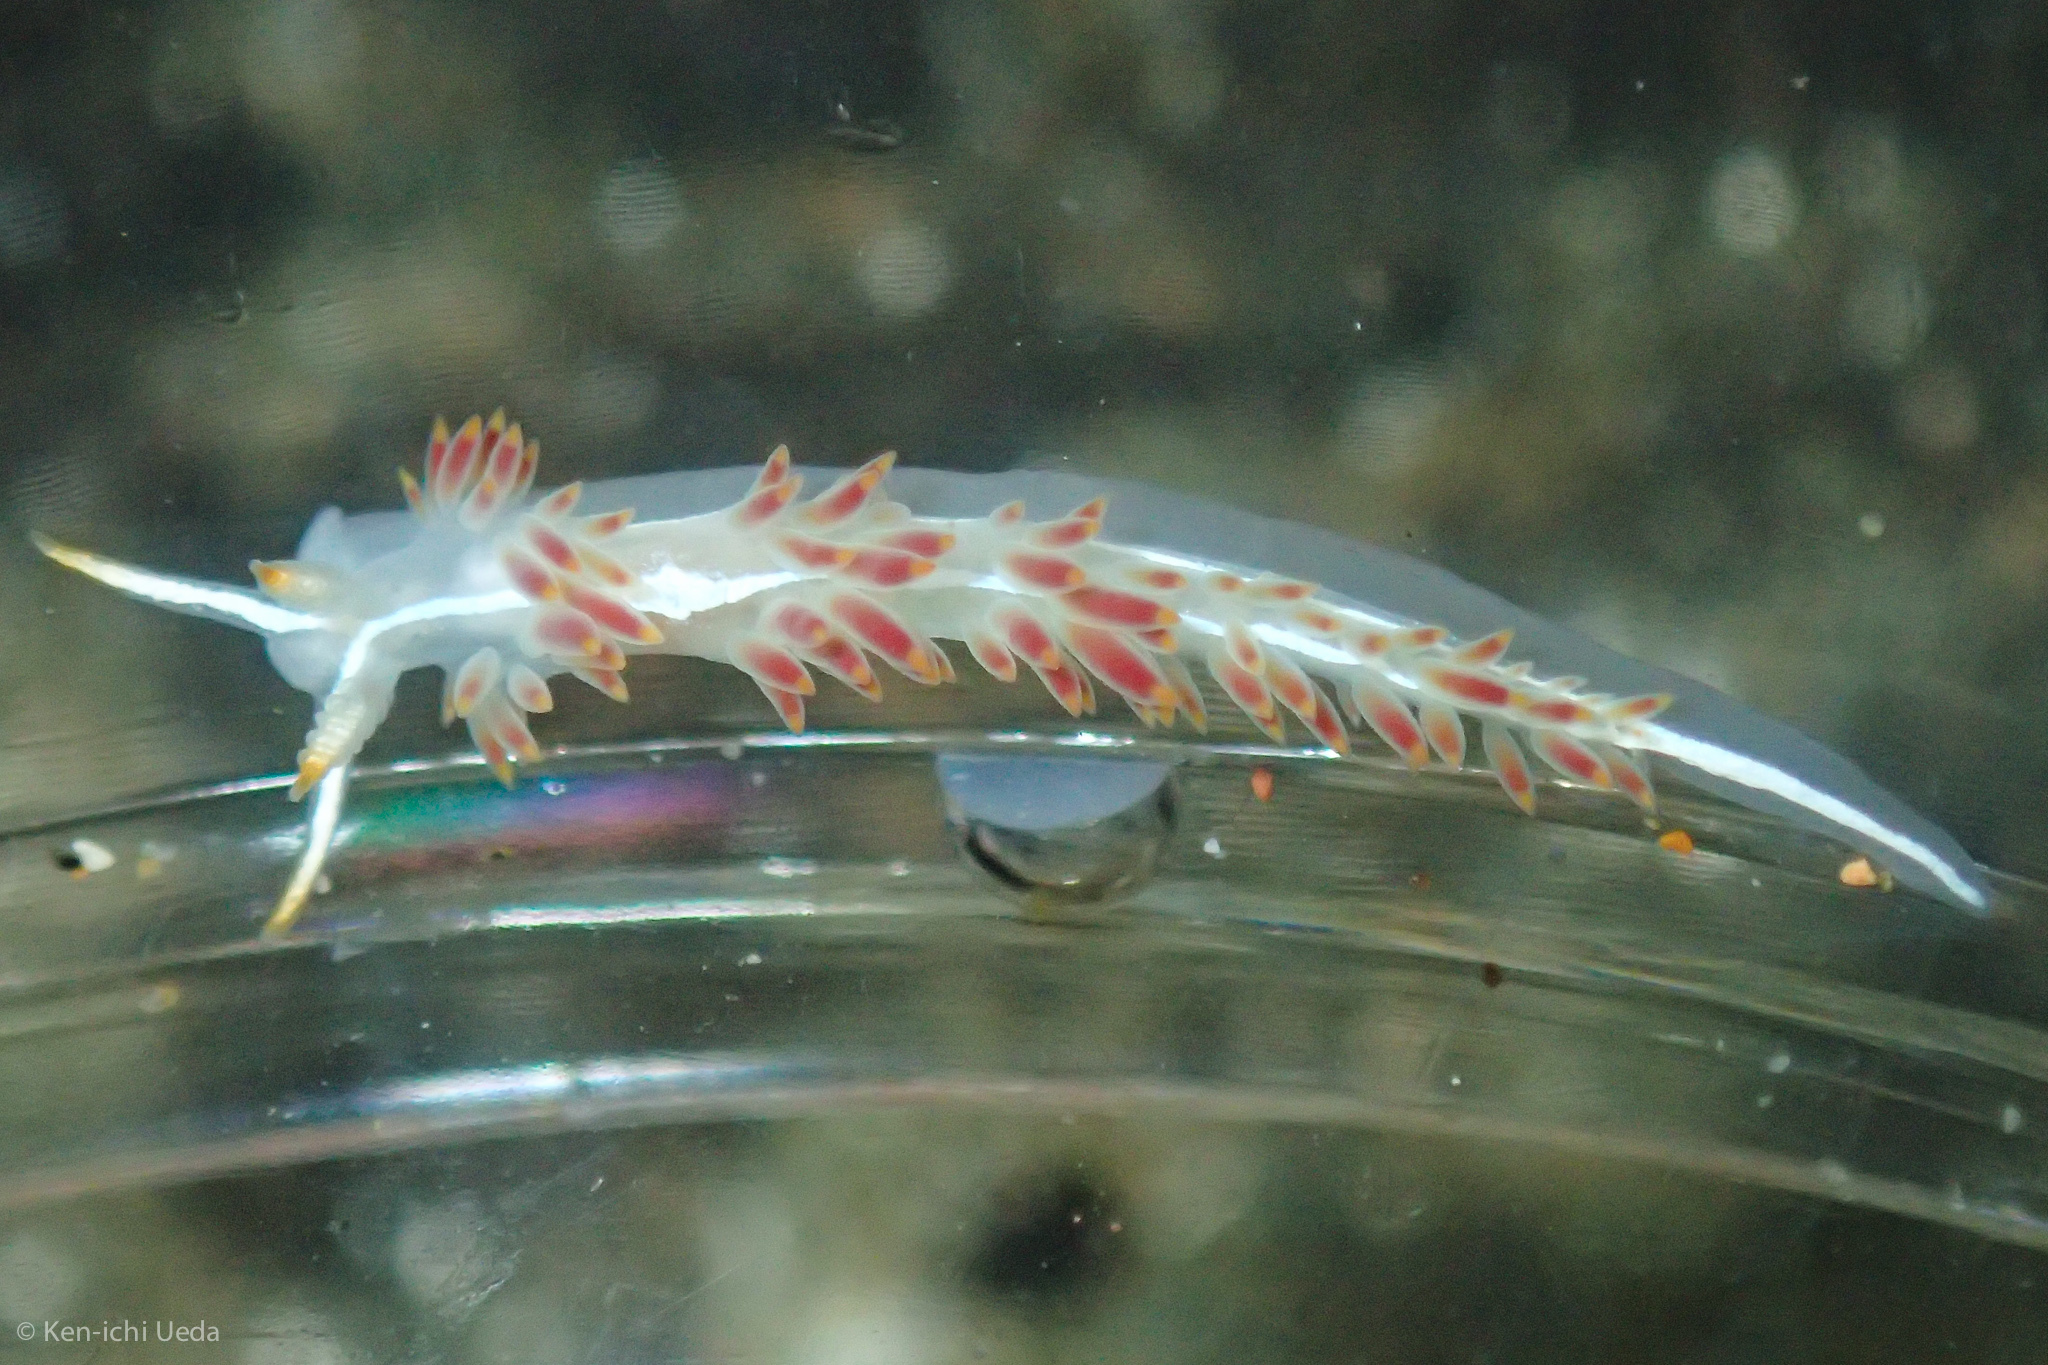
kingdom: Animalia
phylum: Mollusca
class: Gastropoda
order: Nudibranchia
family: Coryphellidae
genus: Coryphella
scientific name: Coryphella trilineata
